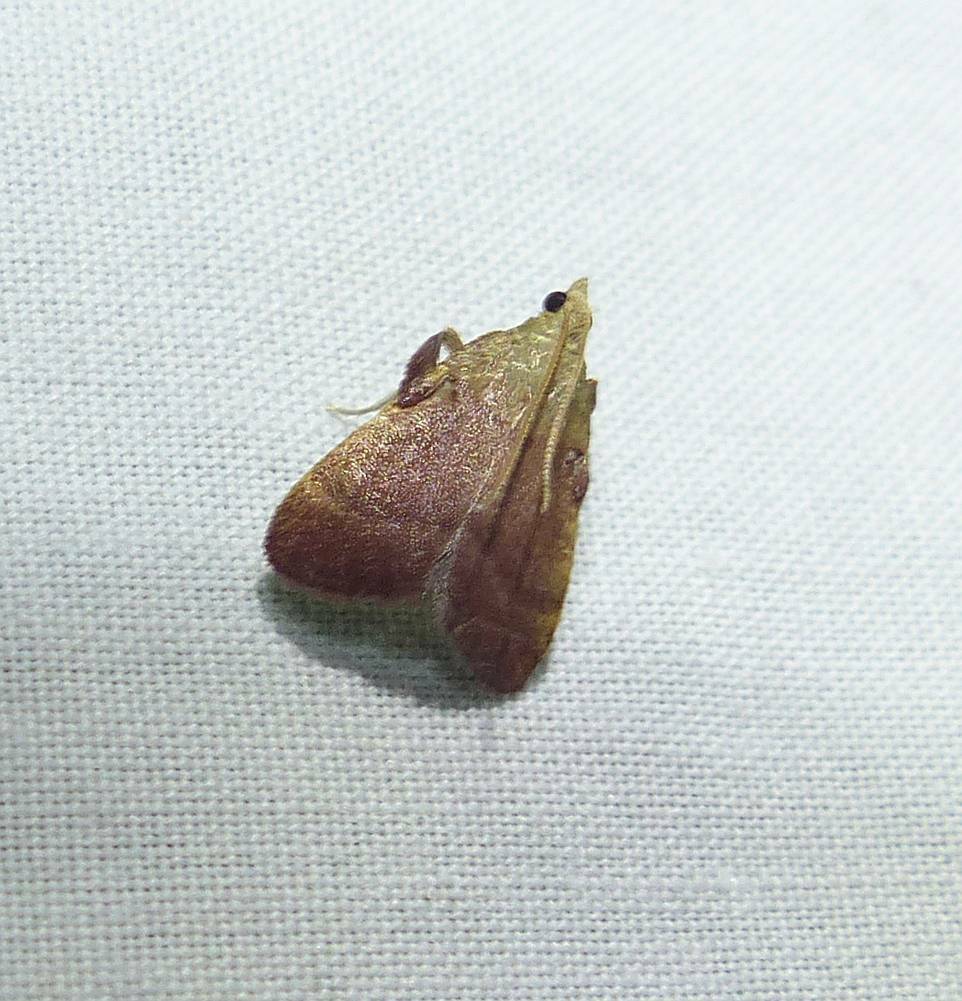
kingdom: Animalia
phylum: Arthropoda
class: Insecta
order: Lepidoptera
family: Pyralidae
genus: Condylolomia
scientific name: Condylolomia participialis
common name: Drab condylolomia moth
